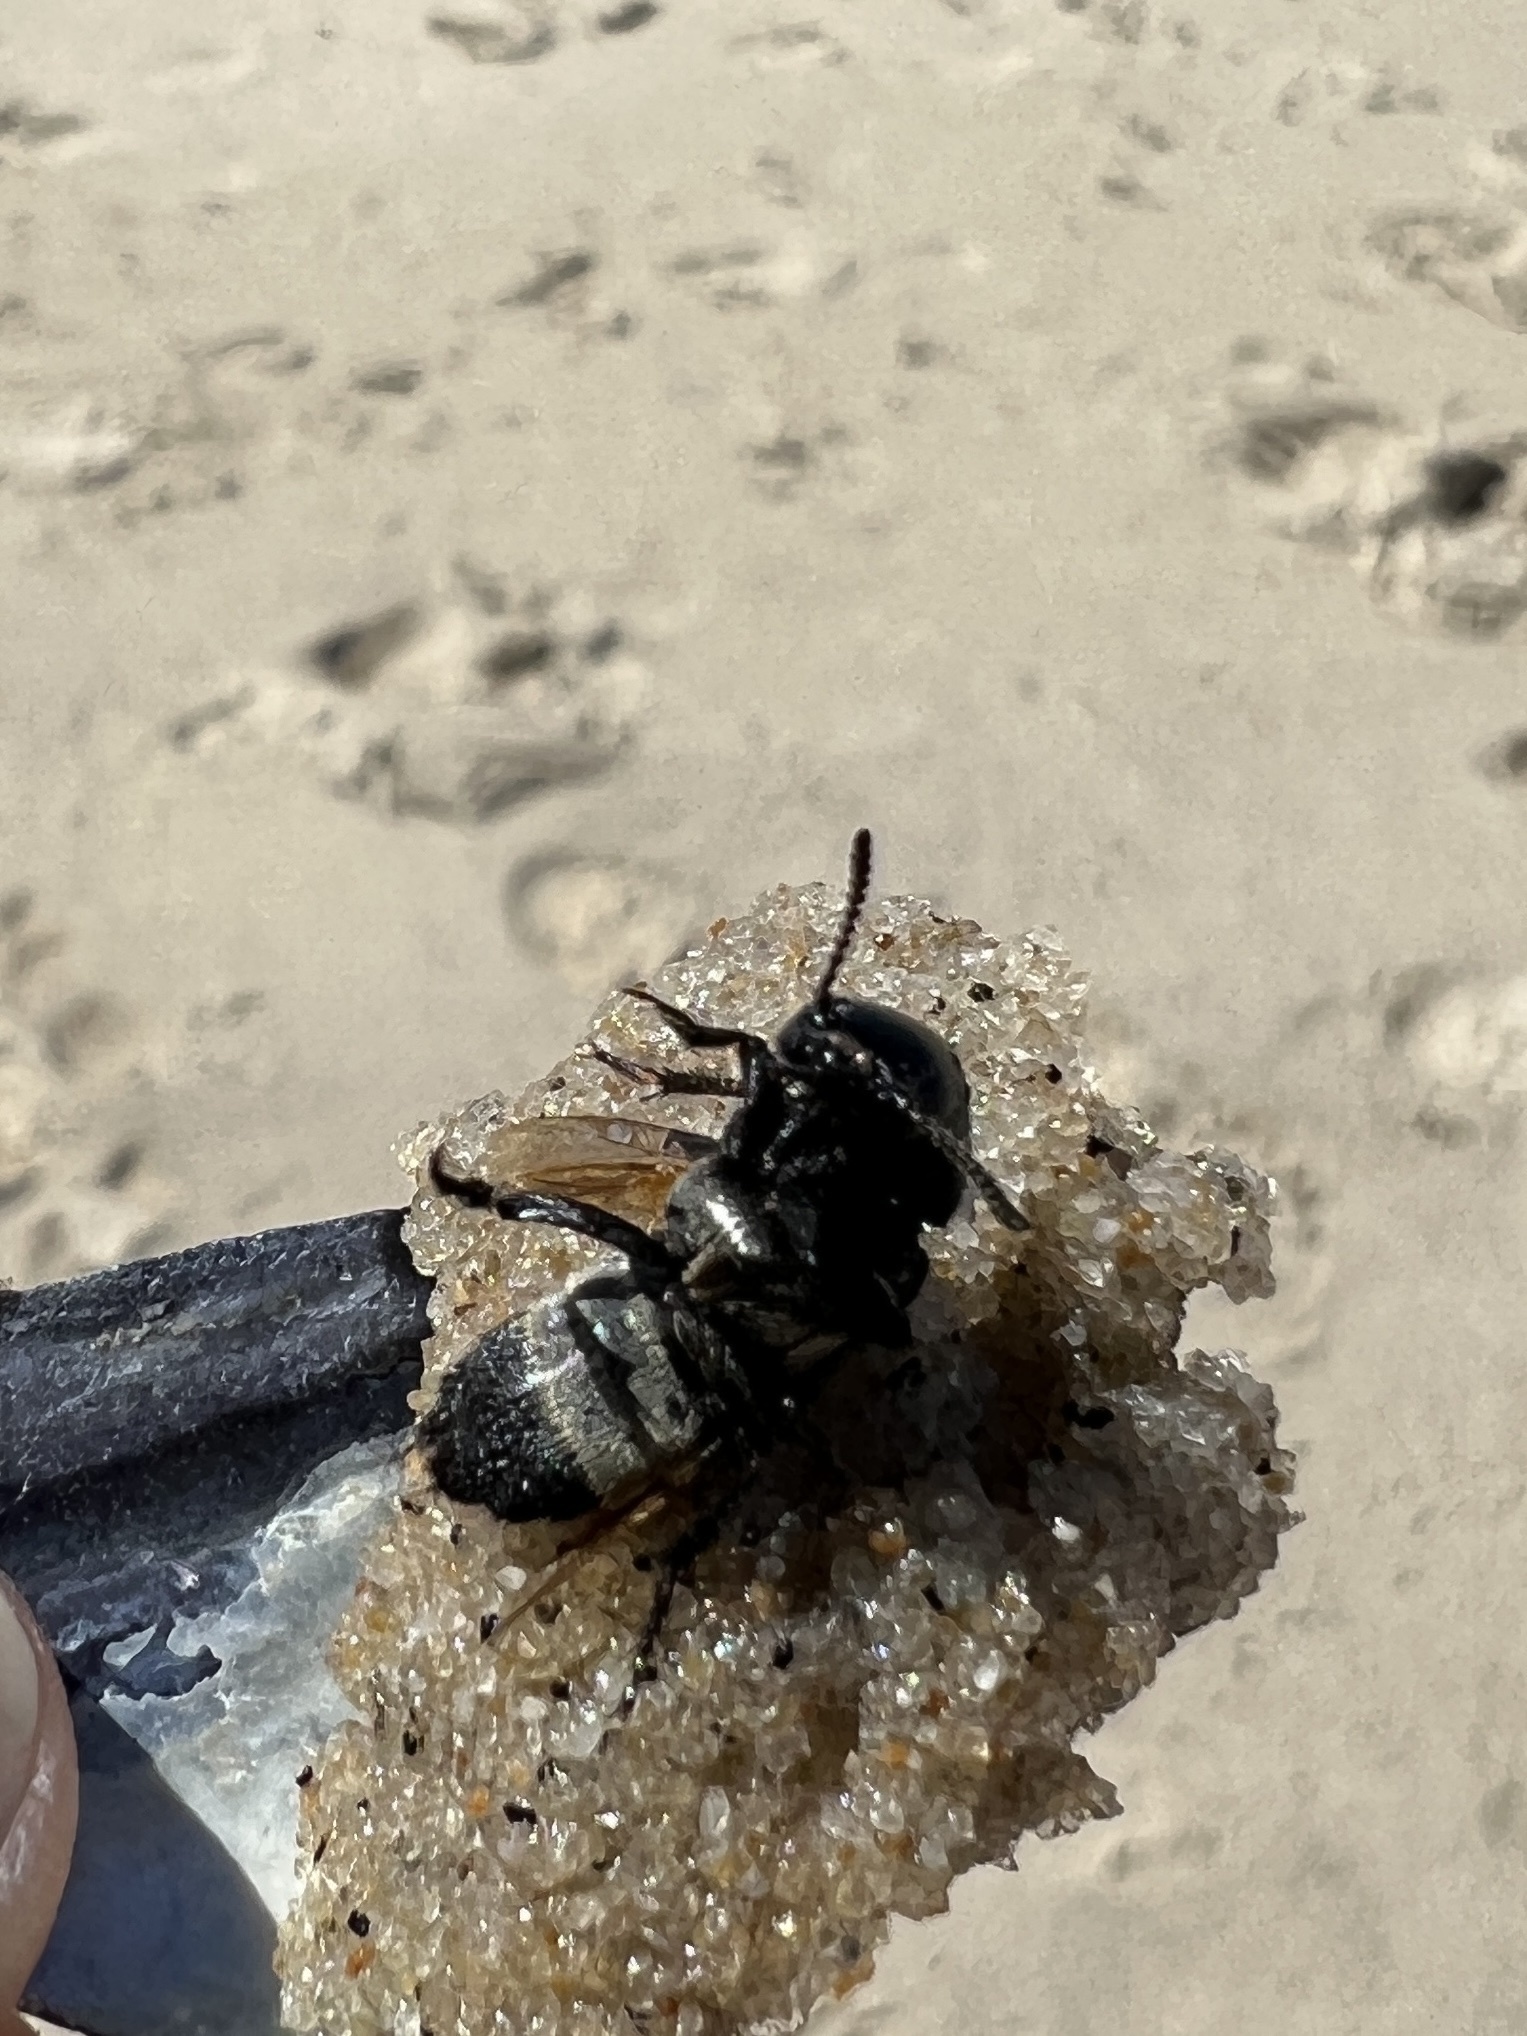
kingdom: Animalia
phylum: Arthropoda
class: Insecta
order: Coleoptera
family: Staphylinidae
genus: Creophilus
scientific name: Creophilus maxillosus
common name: Hairy rove beetle
